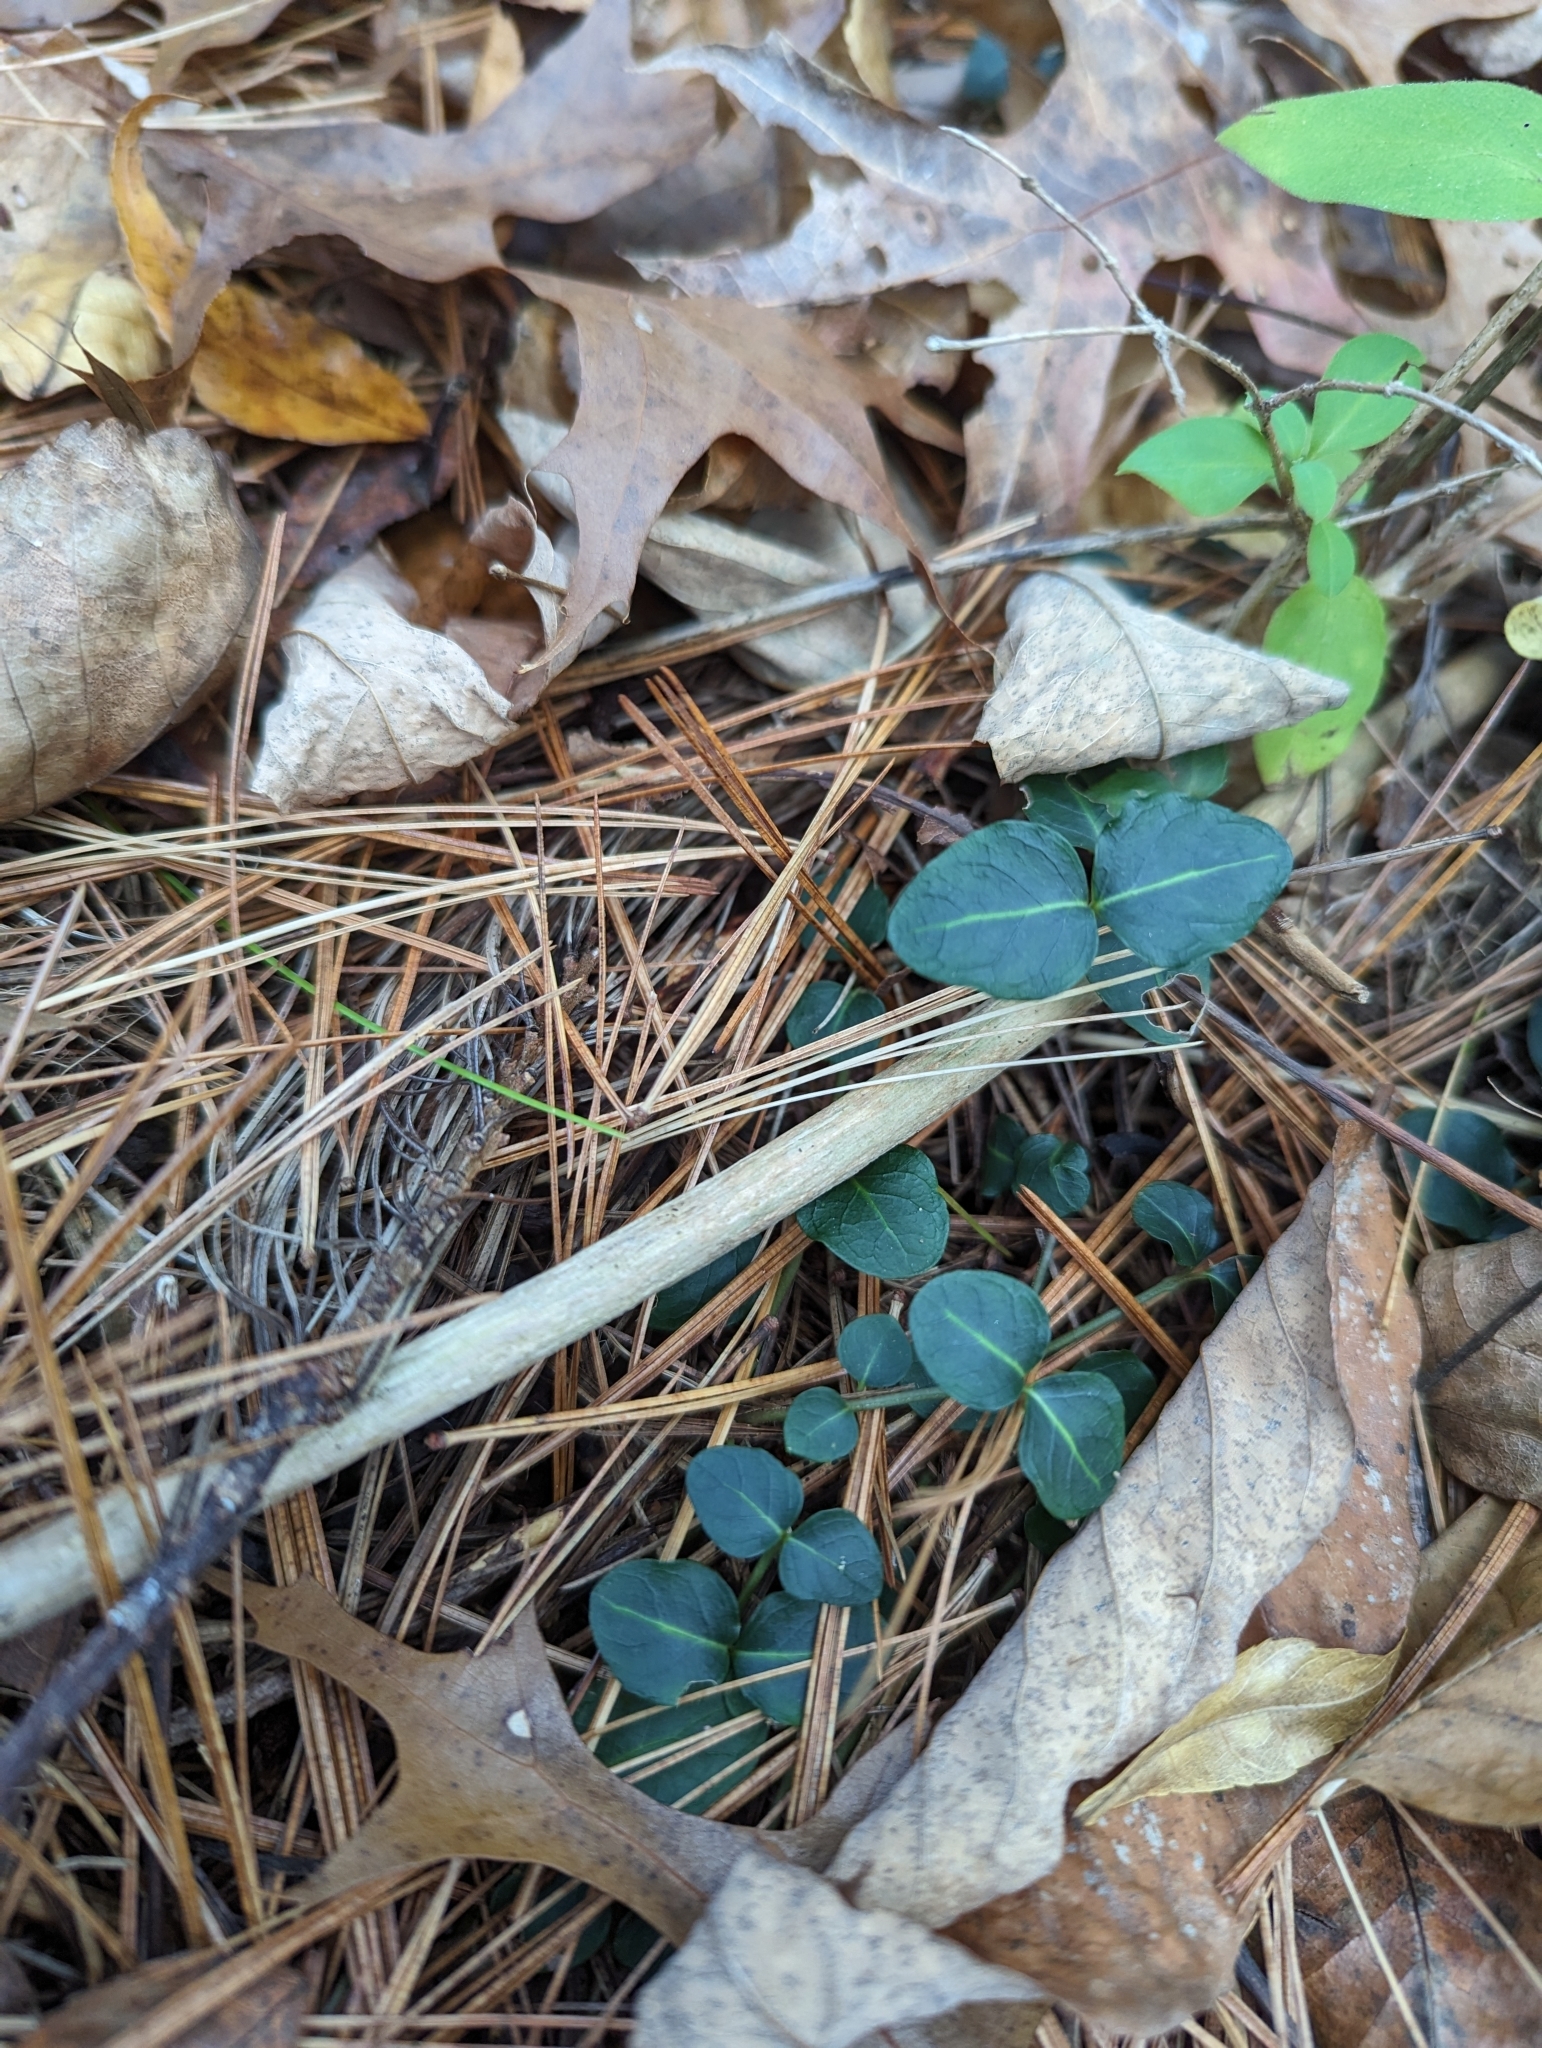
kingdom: Plantae
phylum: Tracheophyta
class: Magnoliopsida
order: Gentianales
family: Rubiaceae
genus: Mitchella
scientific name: Mitchella repens
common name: Partridge-berry
